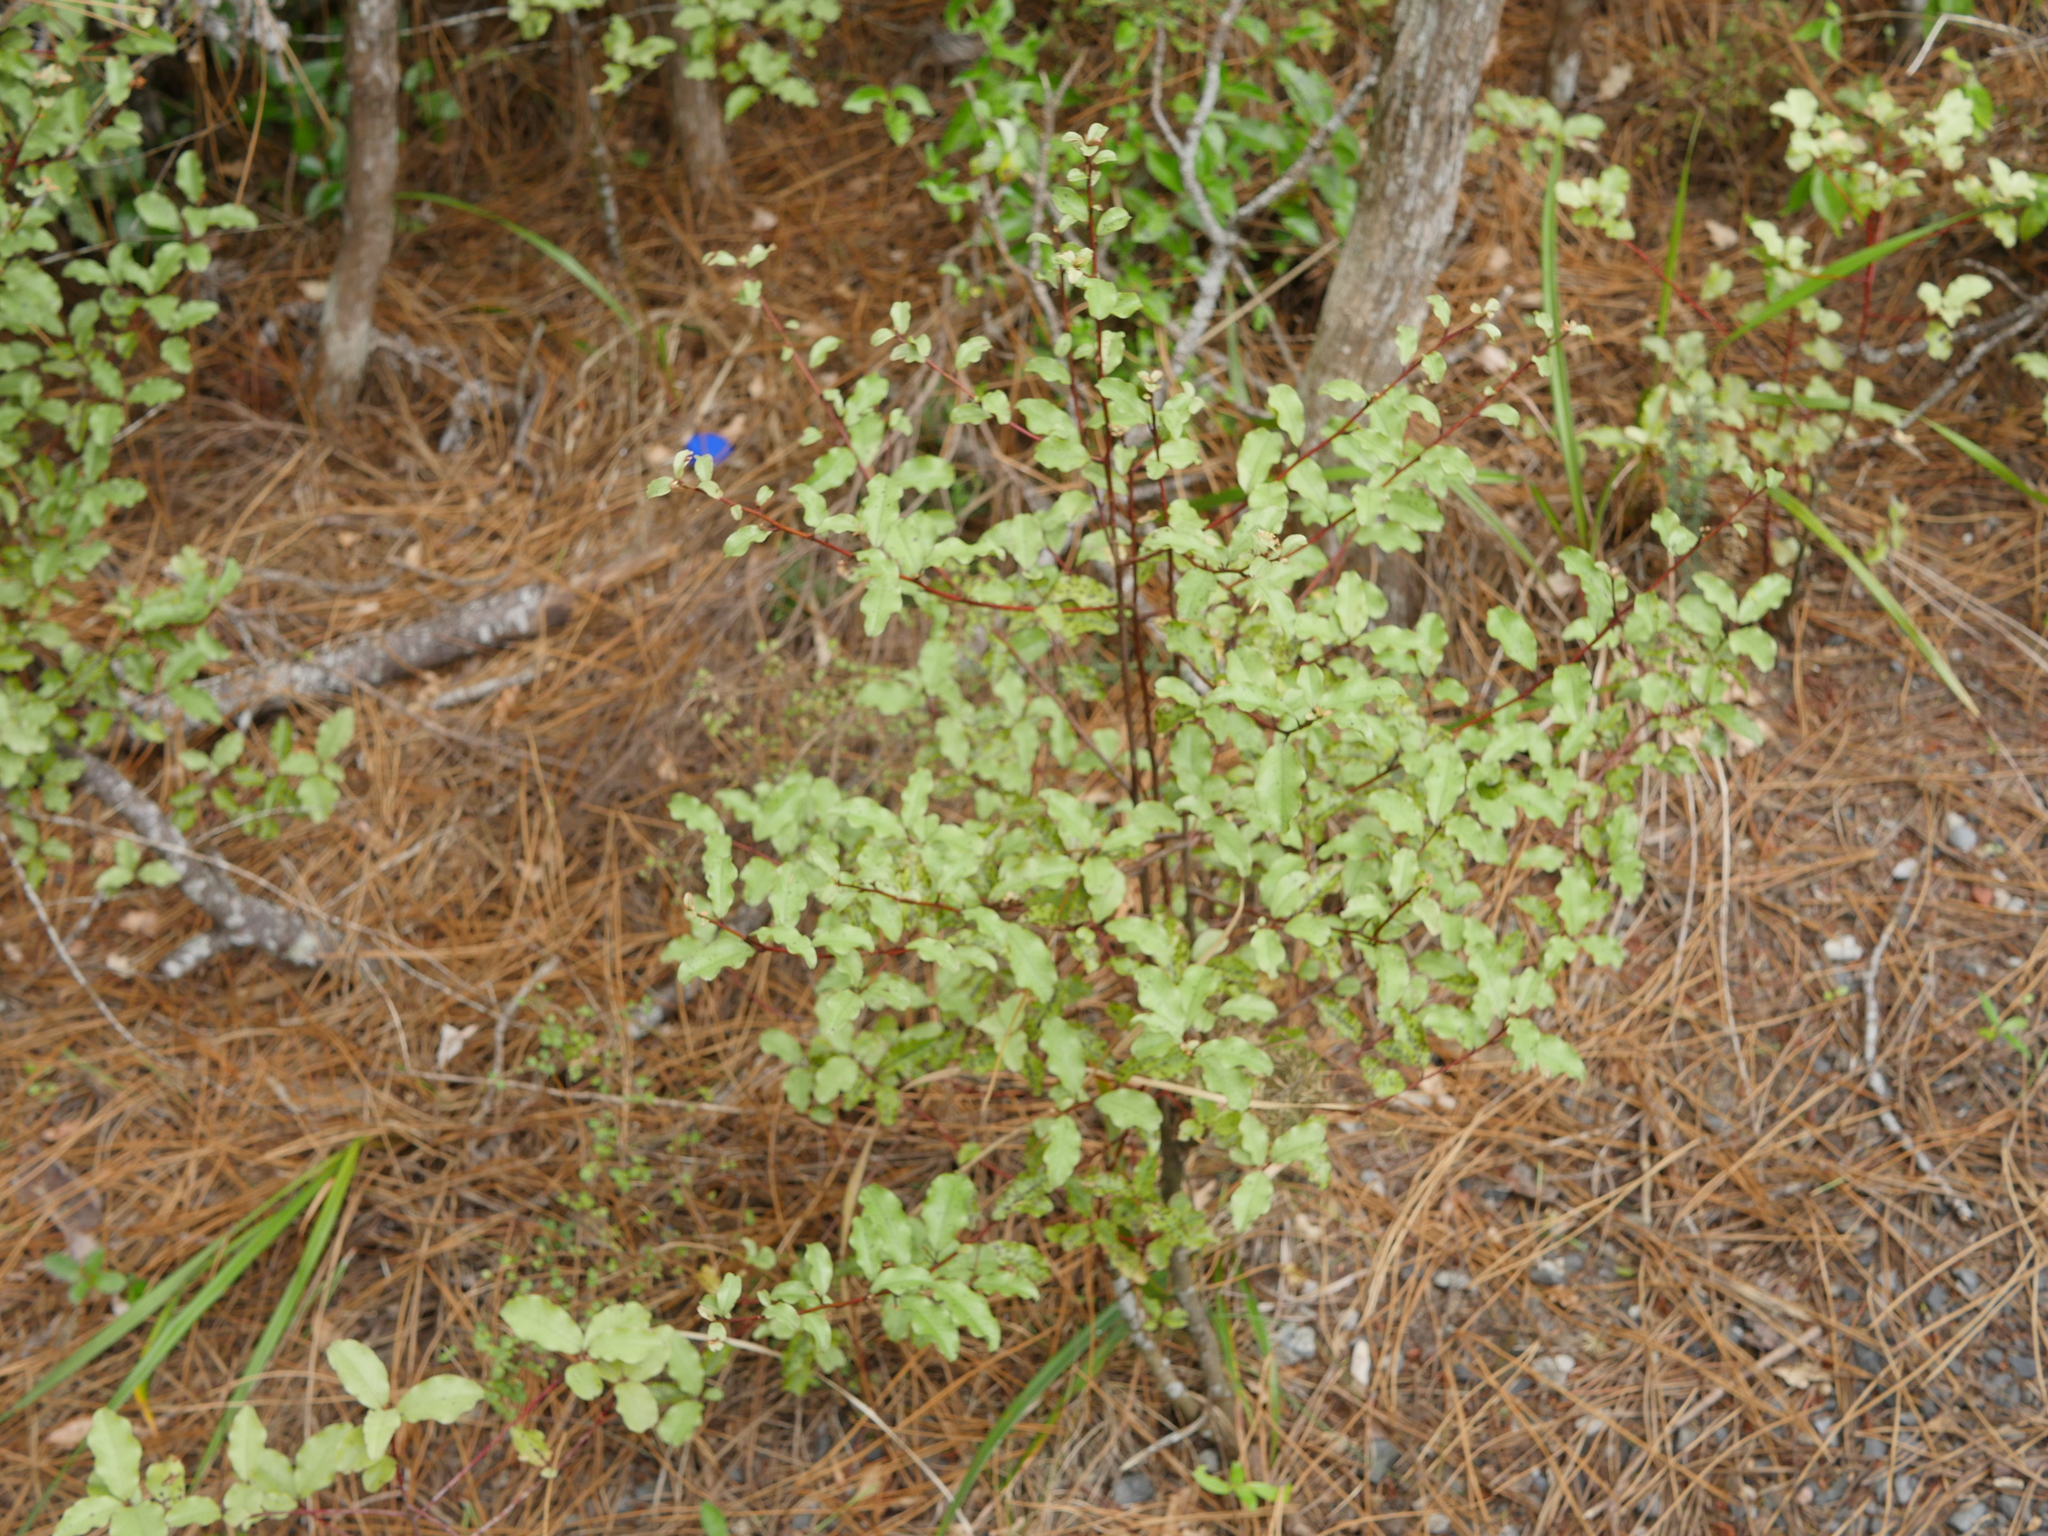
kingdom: Plantae
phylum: Tracheophyta
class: Magnoliopsida
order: Ericales
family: Primulaceae
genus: Myrsine
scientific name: Myrsine australis
